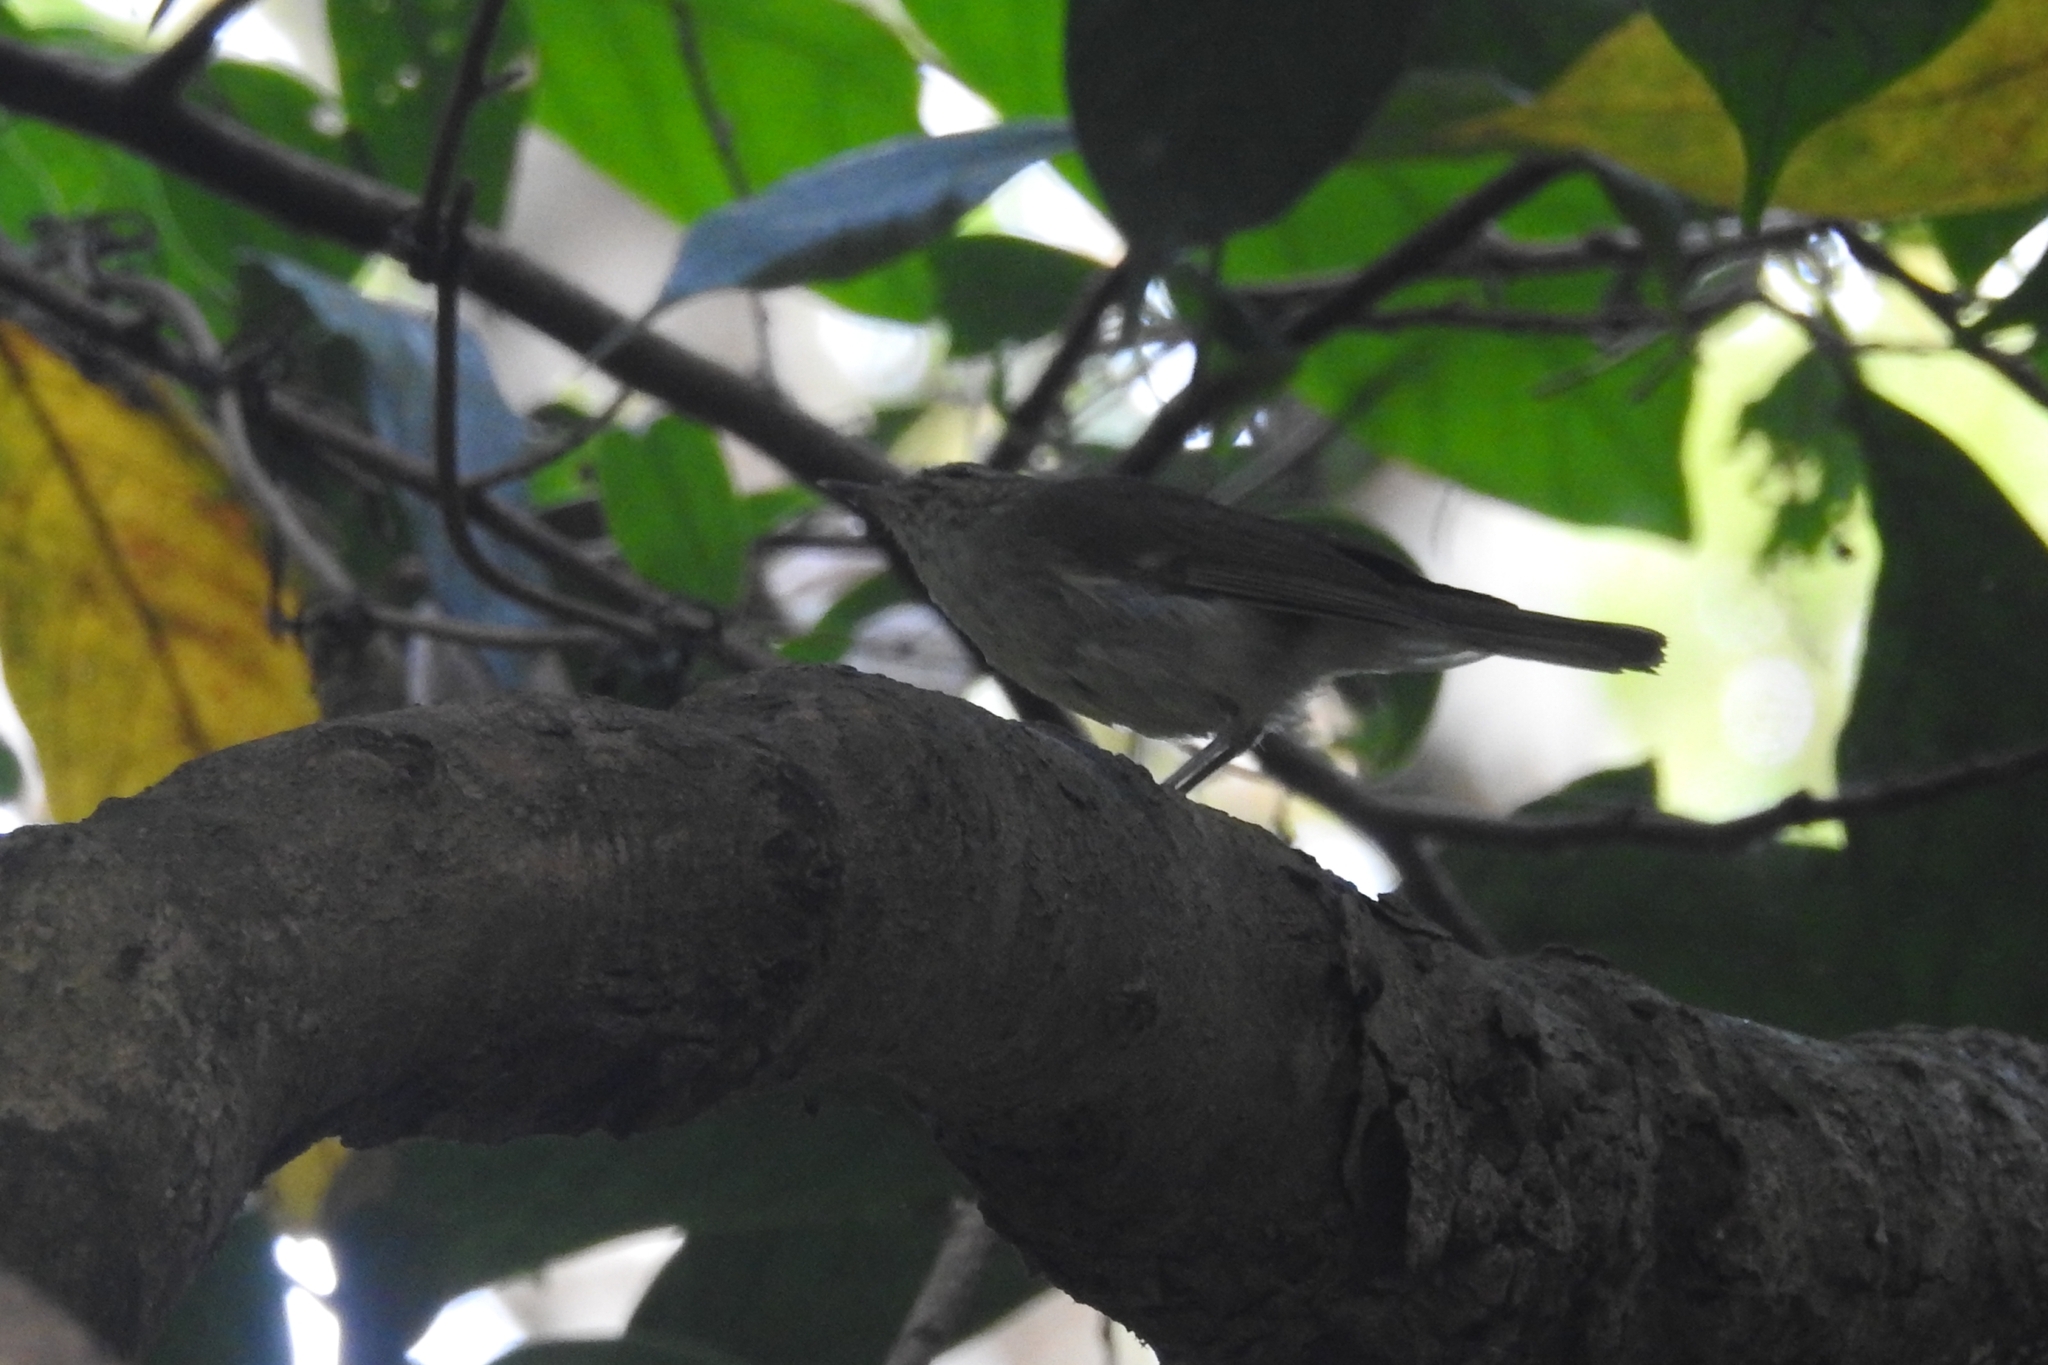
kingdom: Animalia
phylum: Chordata
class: Aves
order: Passeriformes
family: Phylloscopidae
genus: Phylloscopus
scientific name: Phylloscopus trochiloides
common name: Greenish warbler
